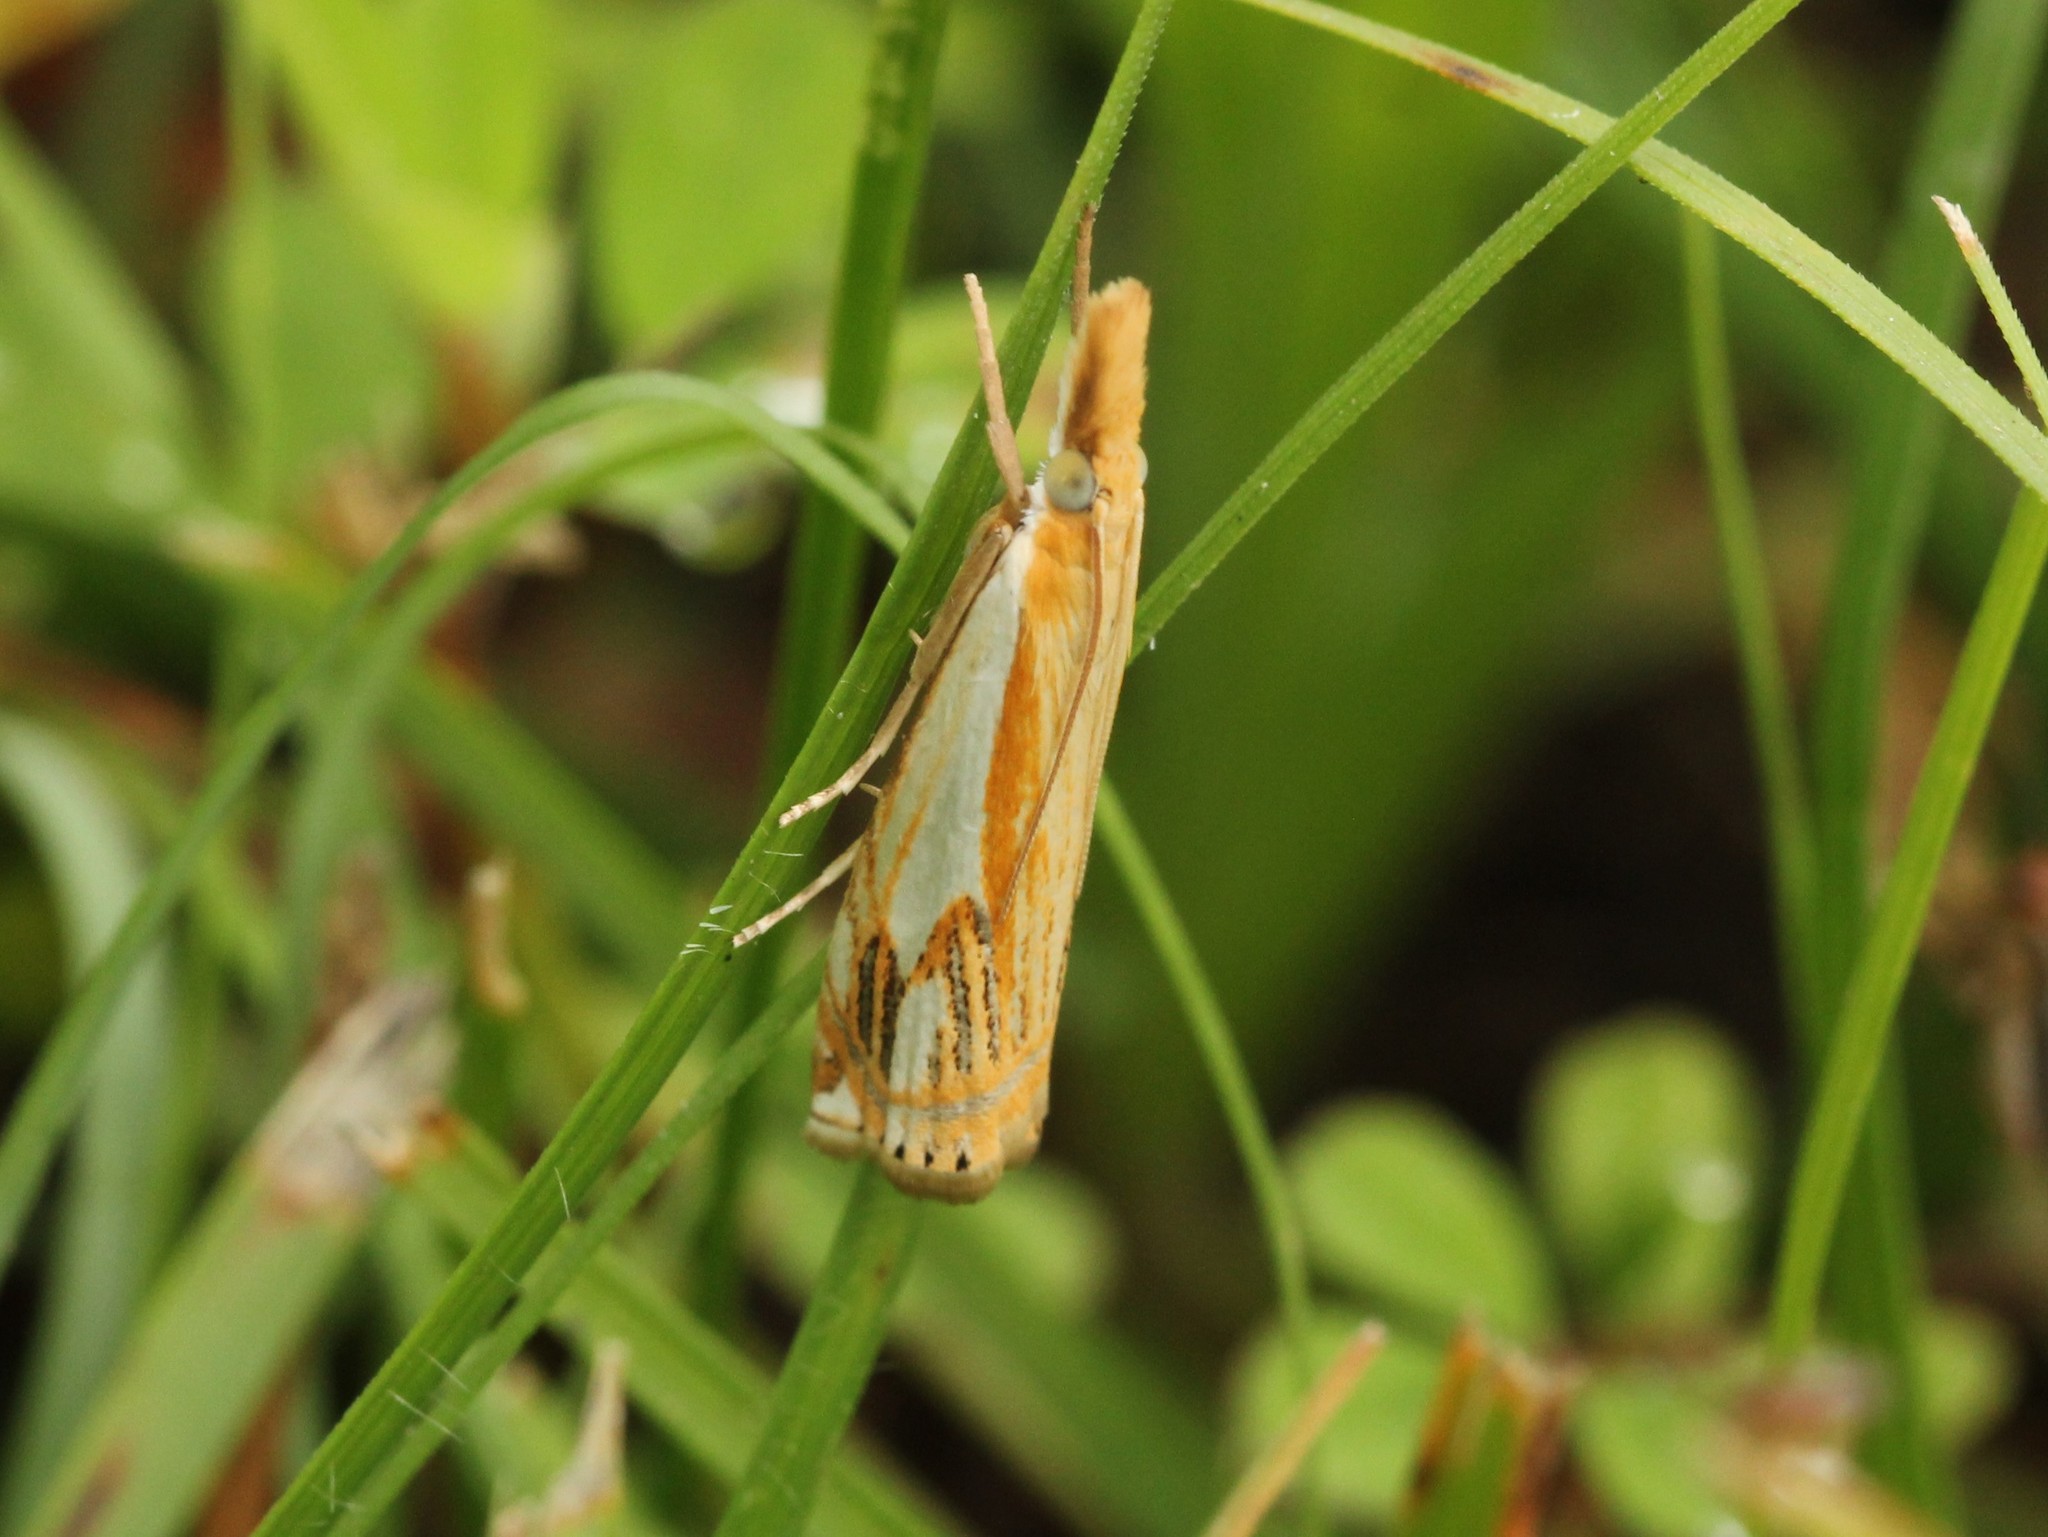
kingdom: Animalia
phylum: Arthropoda
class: Insecta
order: Lepidoptera
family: Crambidae
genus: Crambus
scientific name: Crambus agitatellus
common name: Double-banded grass-veneer
